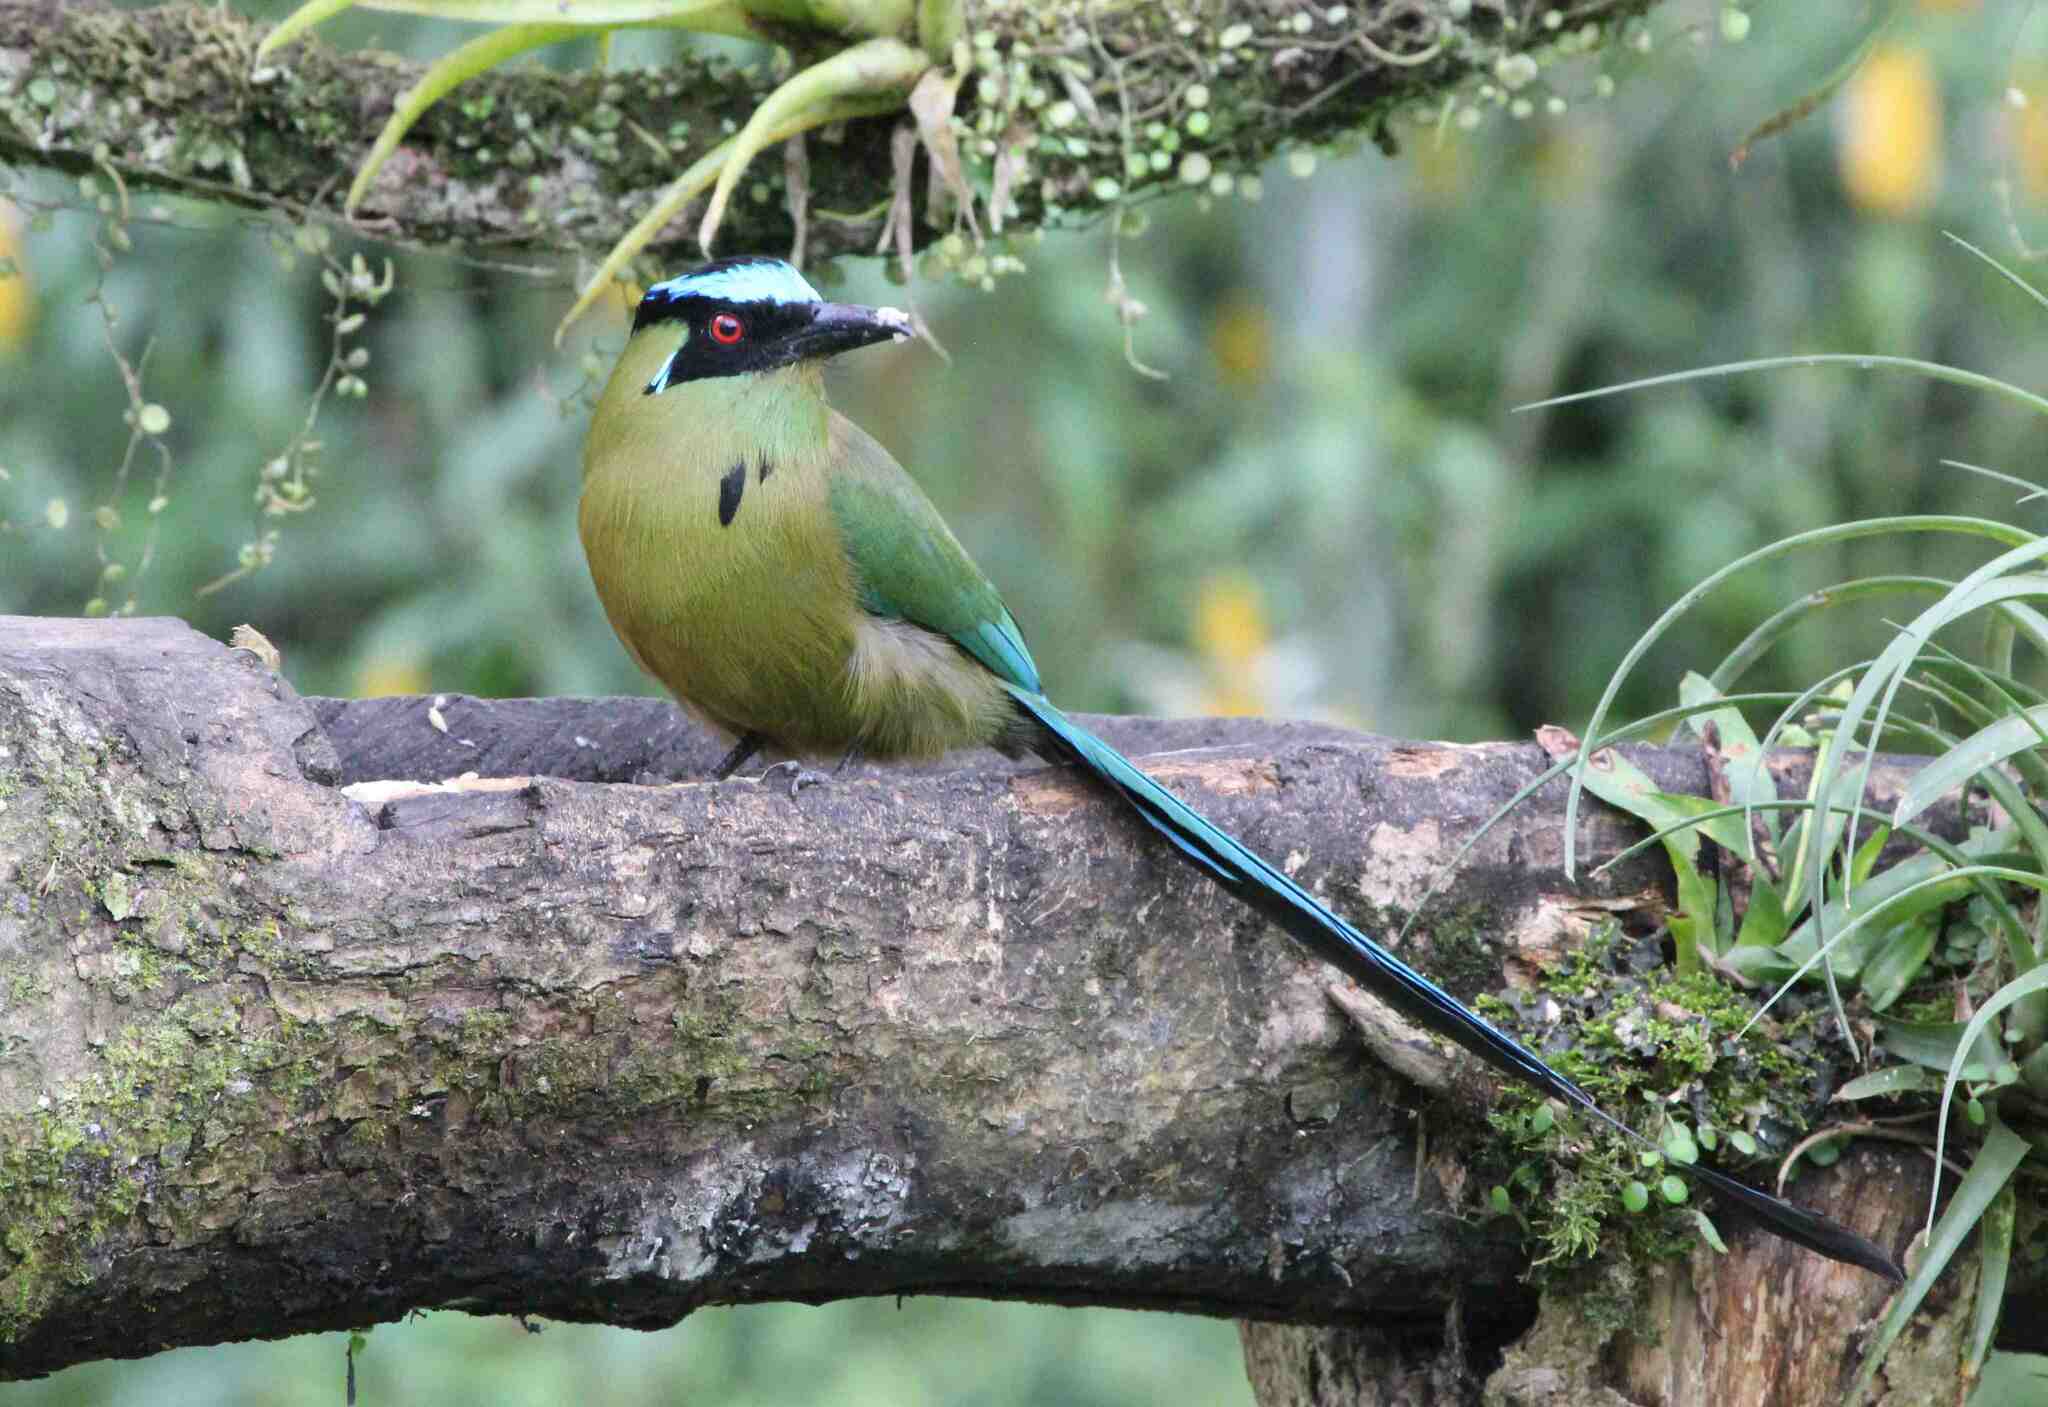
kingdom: Animalia
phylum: Chordata
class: Aves
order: Coraciiformes
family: Momotidae
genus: Momotus
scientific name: Momotus aequatorialis
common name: Andean motmot
